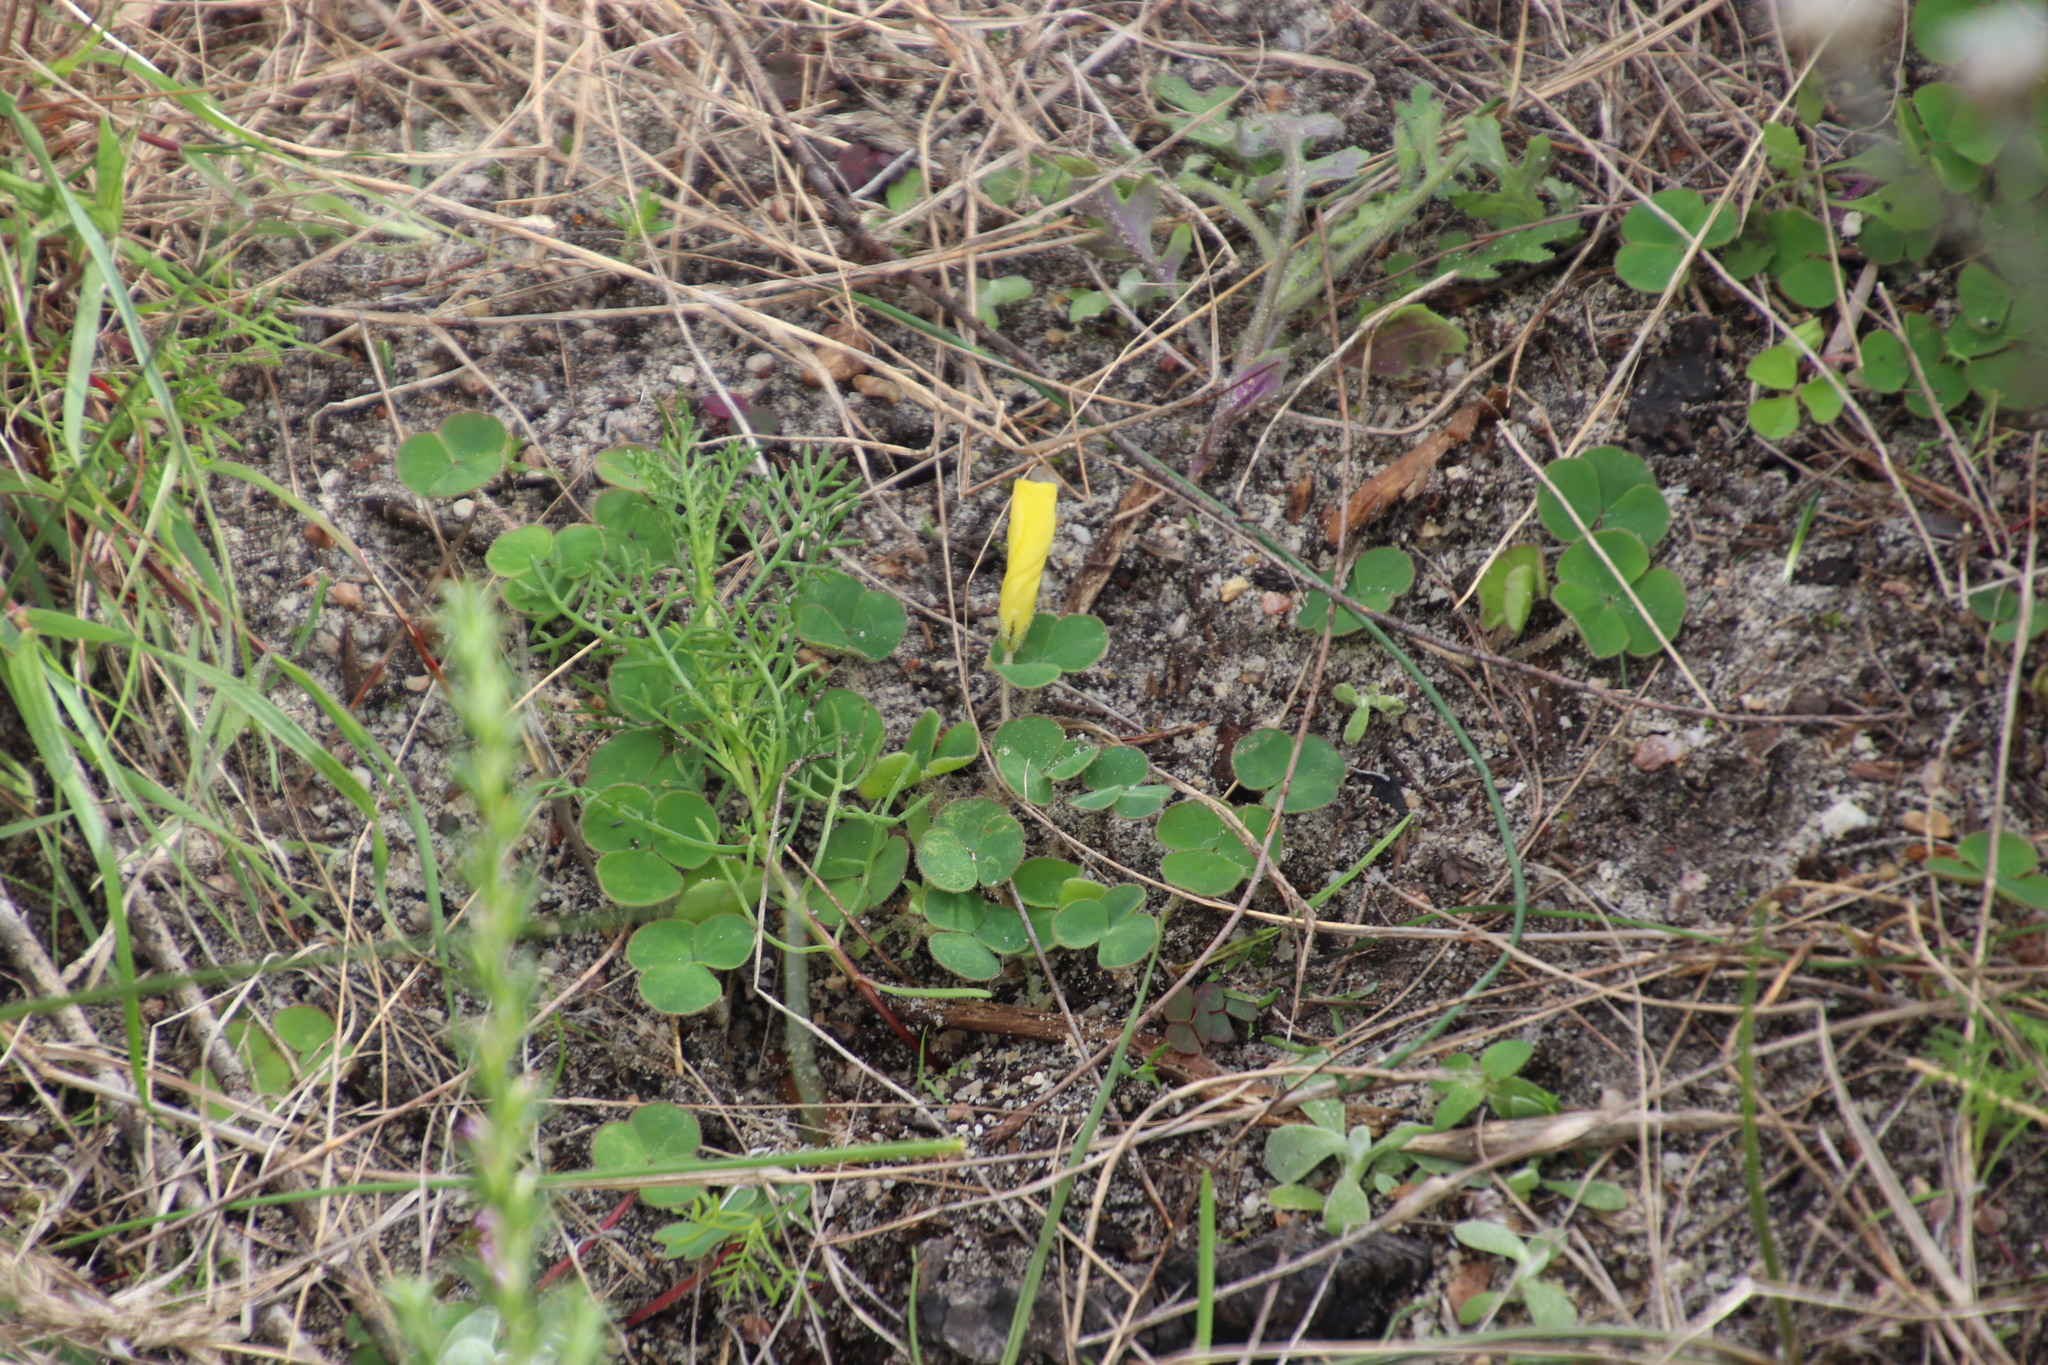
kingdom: Plantae
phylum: Tracheophyta
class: Magnoliopsida
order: Oxalidales
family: Oxalidaceae
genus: Oxalis
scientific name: Oxalis luteola
